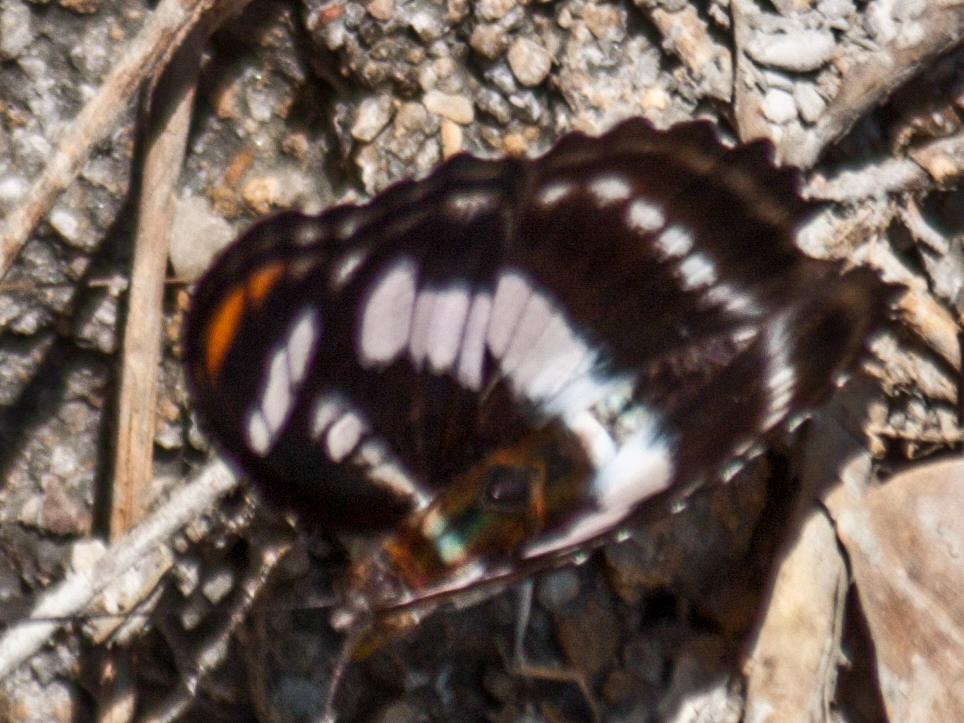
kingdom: Animalia
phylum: Arthropoda
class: Insecta
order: Lepidoptera
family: Nymphalidae
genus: Parathyma
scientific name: Parathyma nefte
